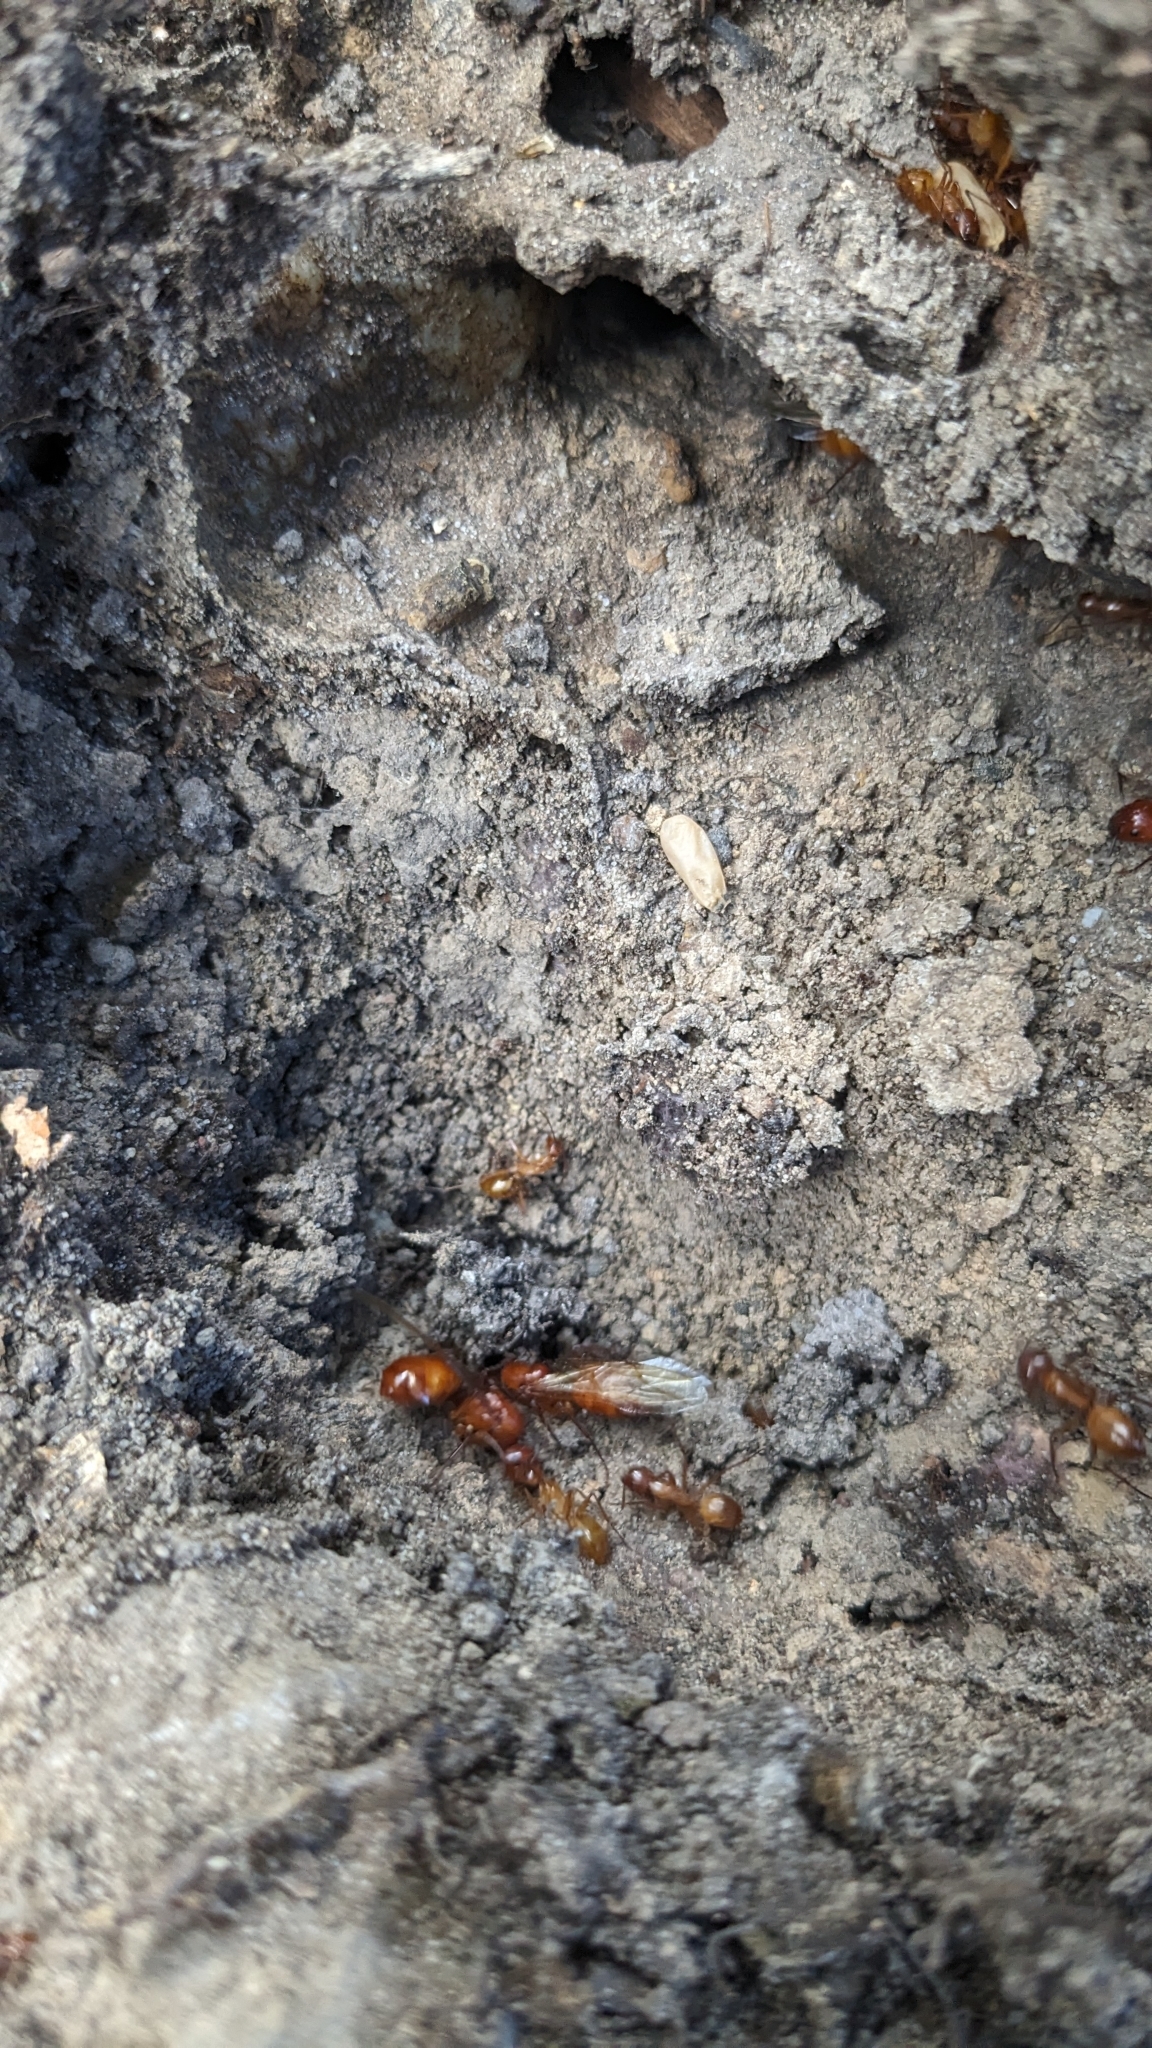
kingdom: Animalia
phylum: Arthropoda
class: Insecta
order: Hymenoptera
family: Formicidae
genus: Camponotus
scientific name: Camponotus castaneus
